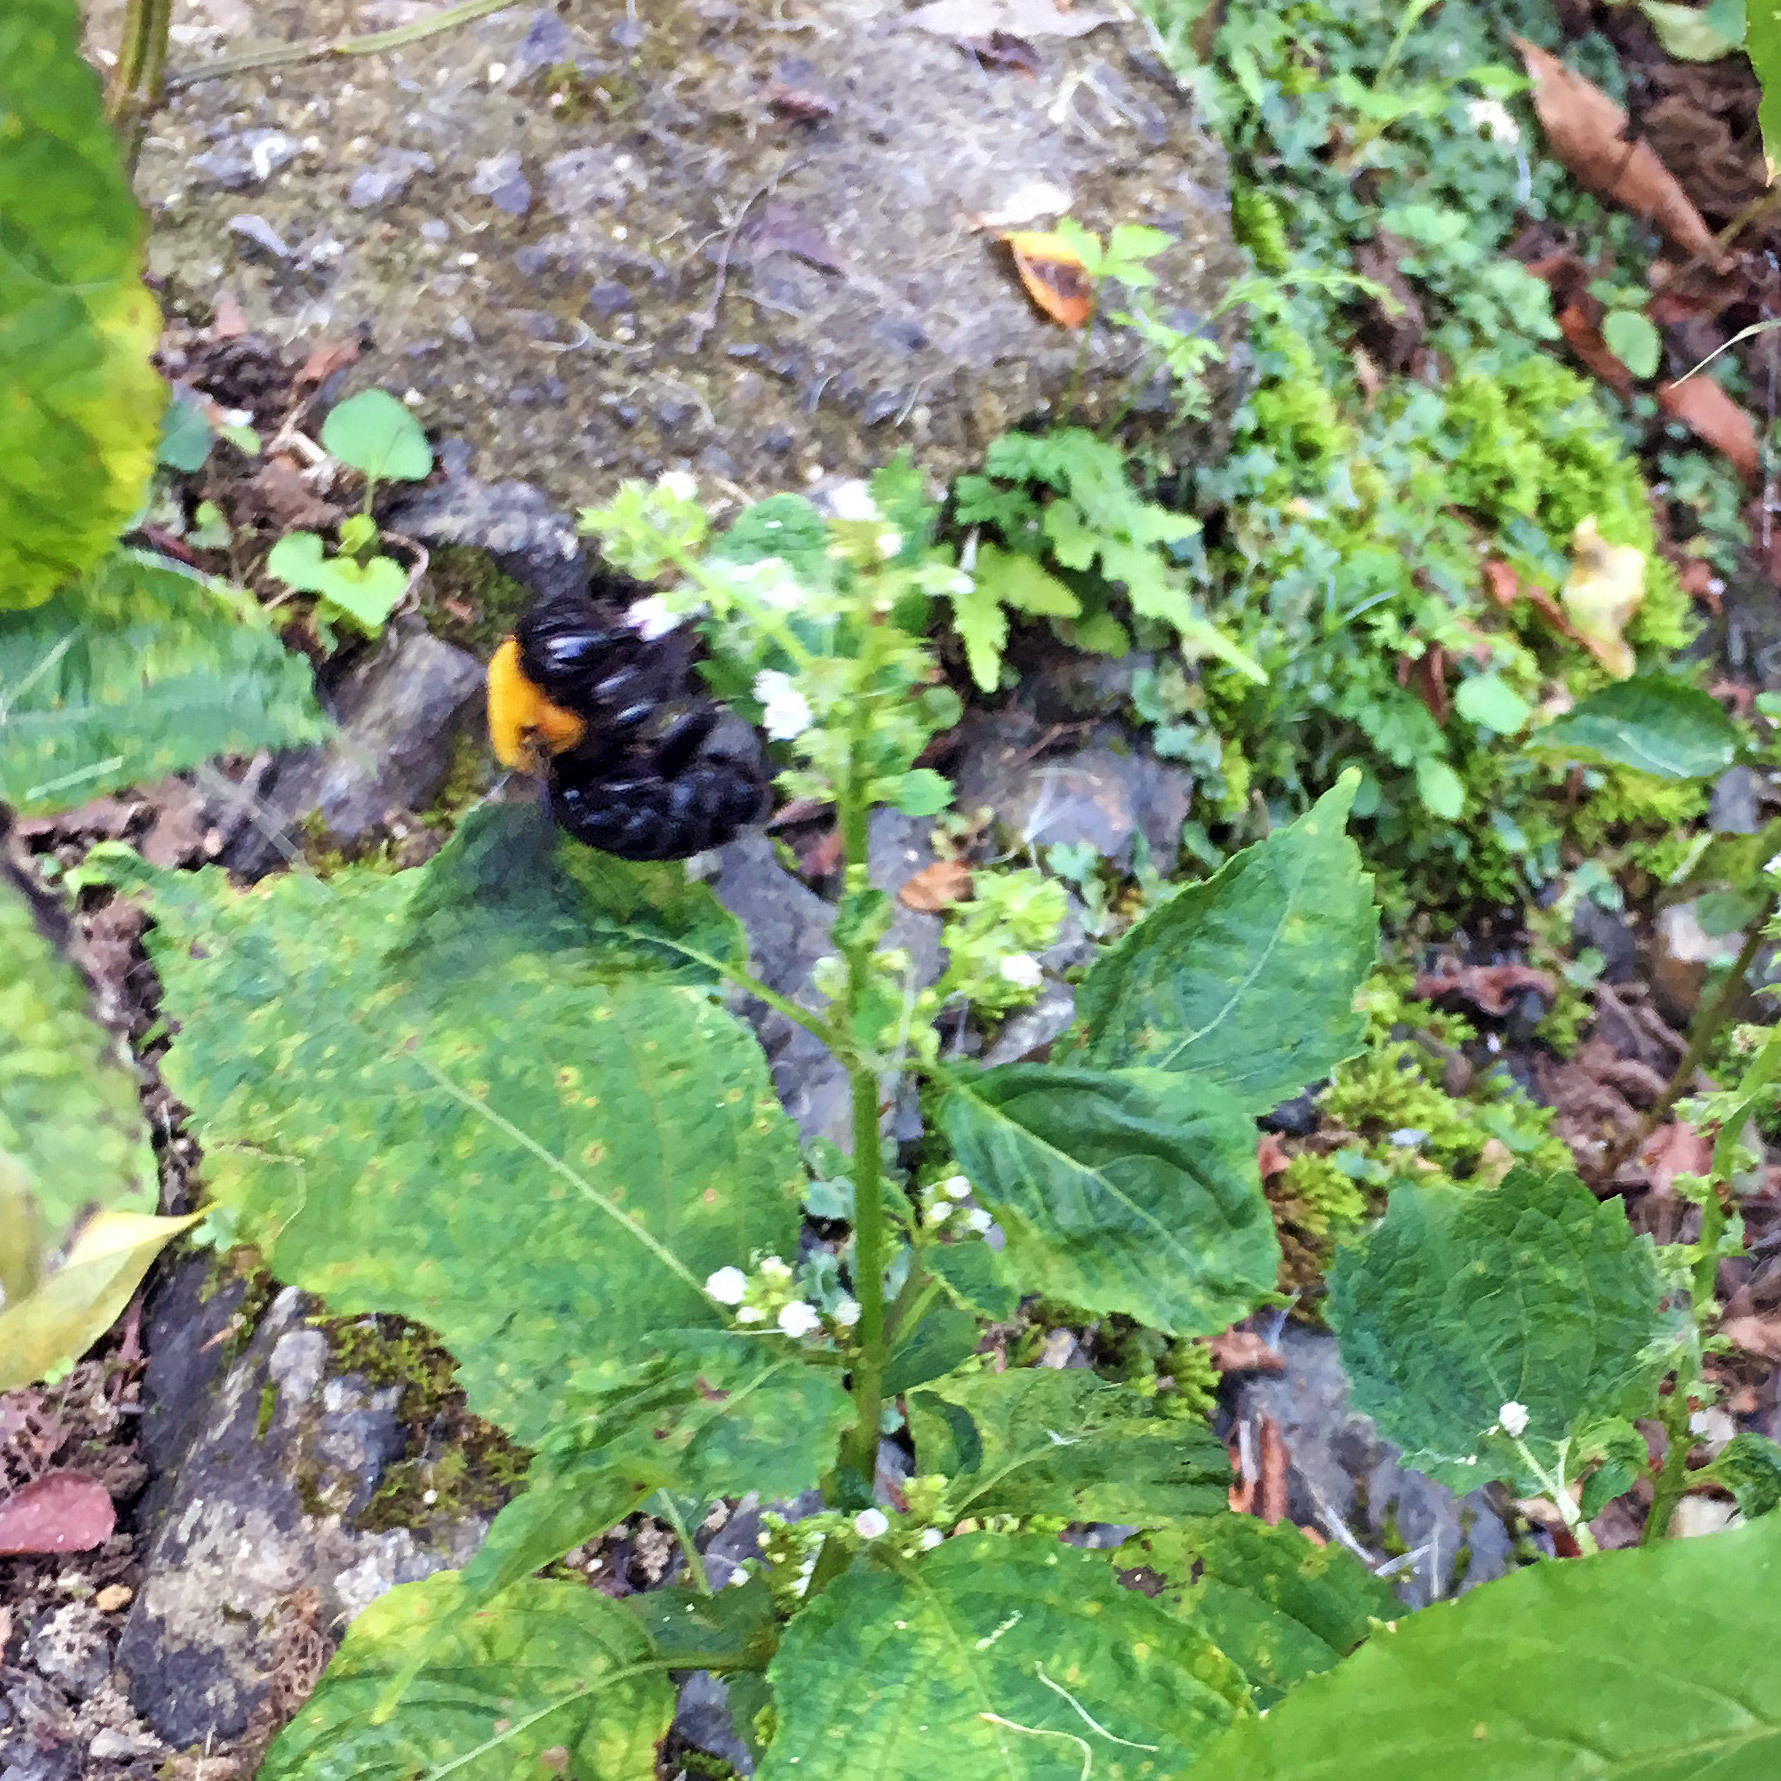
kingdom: Animalia
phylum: Arthropoda
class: Insecta
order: Hymenoptera
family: Apidae
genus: Xylocopa
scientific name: Xylocopa appendiculata
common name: Japanese carpenter bee
